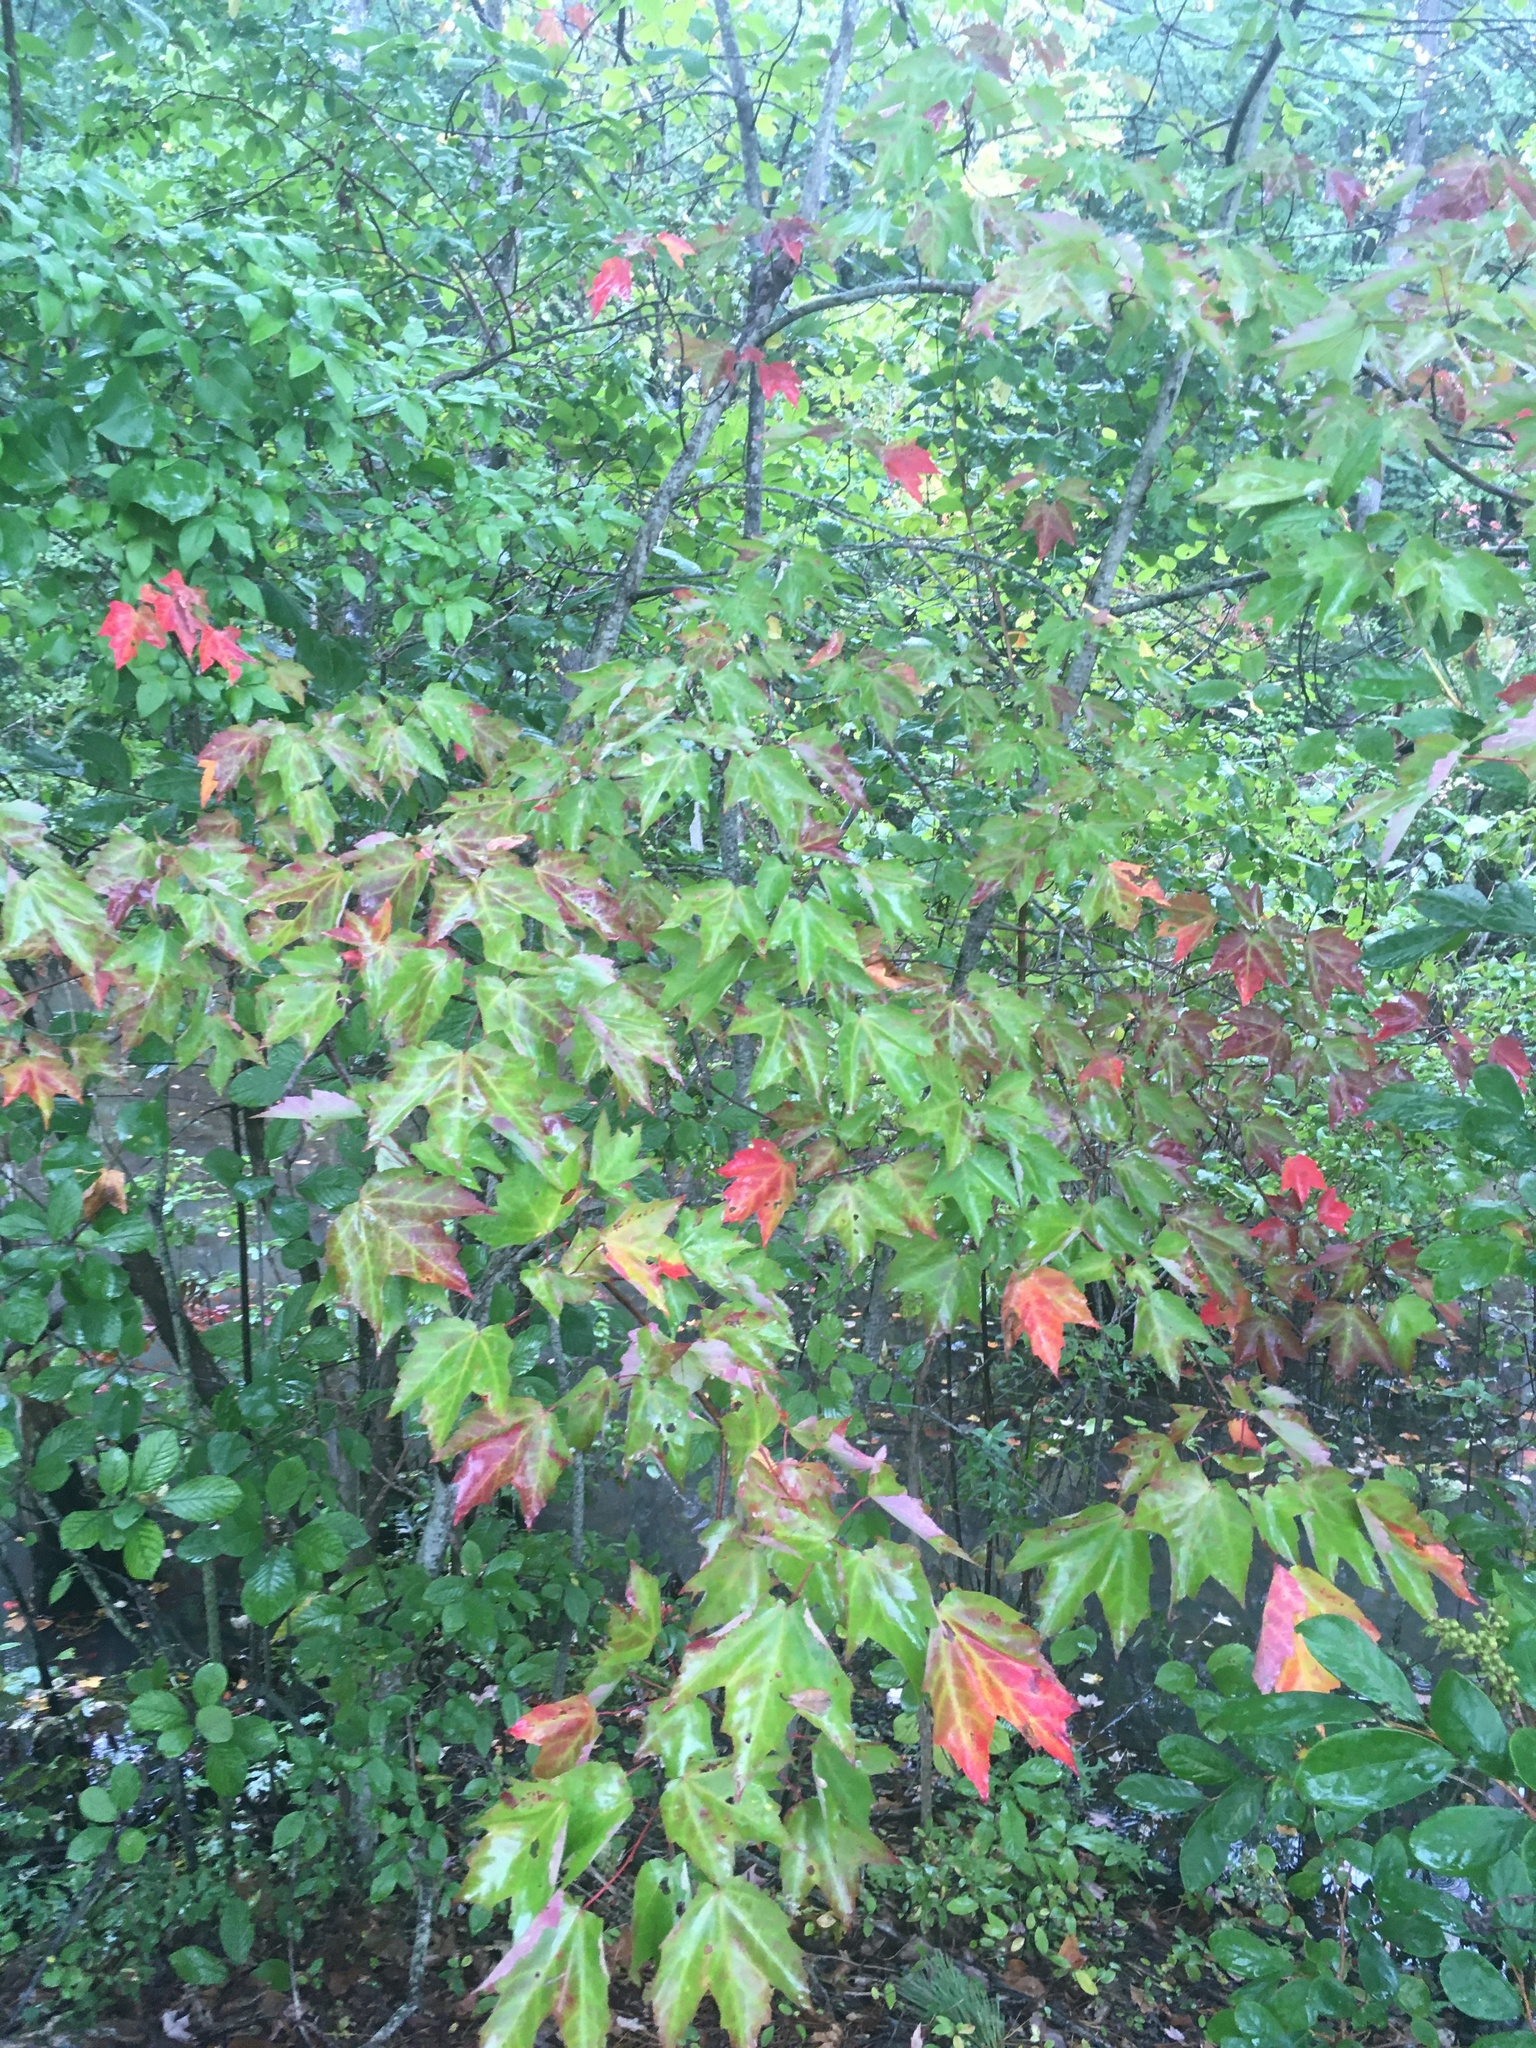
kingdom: Plantae
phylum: Tracheophyta
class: Magnoliopsida
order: Sapindales
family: Sapindaceae
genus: Acer
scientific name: Acer rubrum
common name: Red maple
